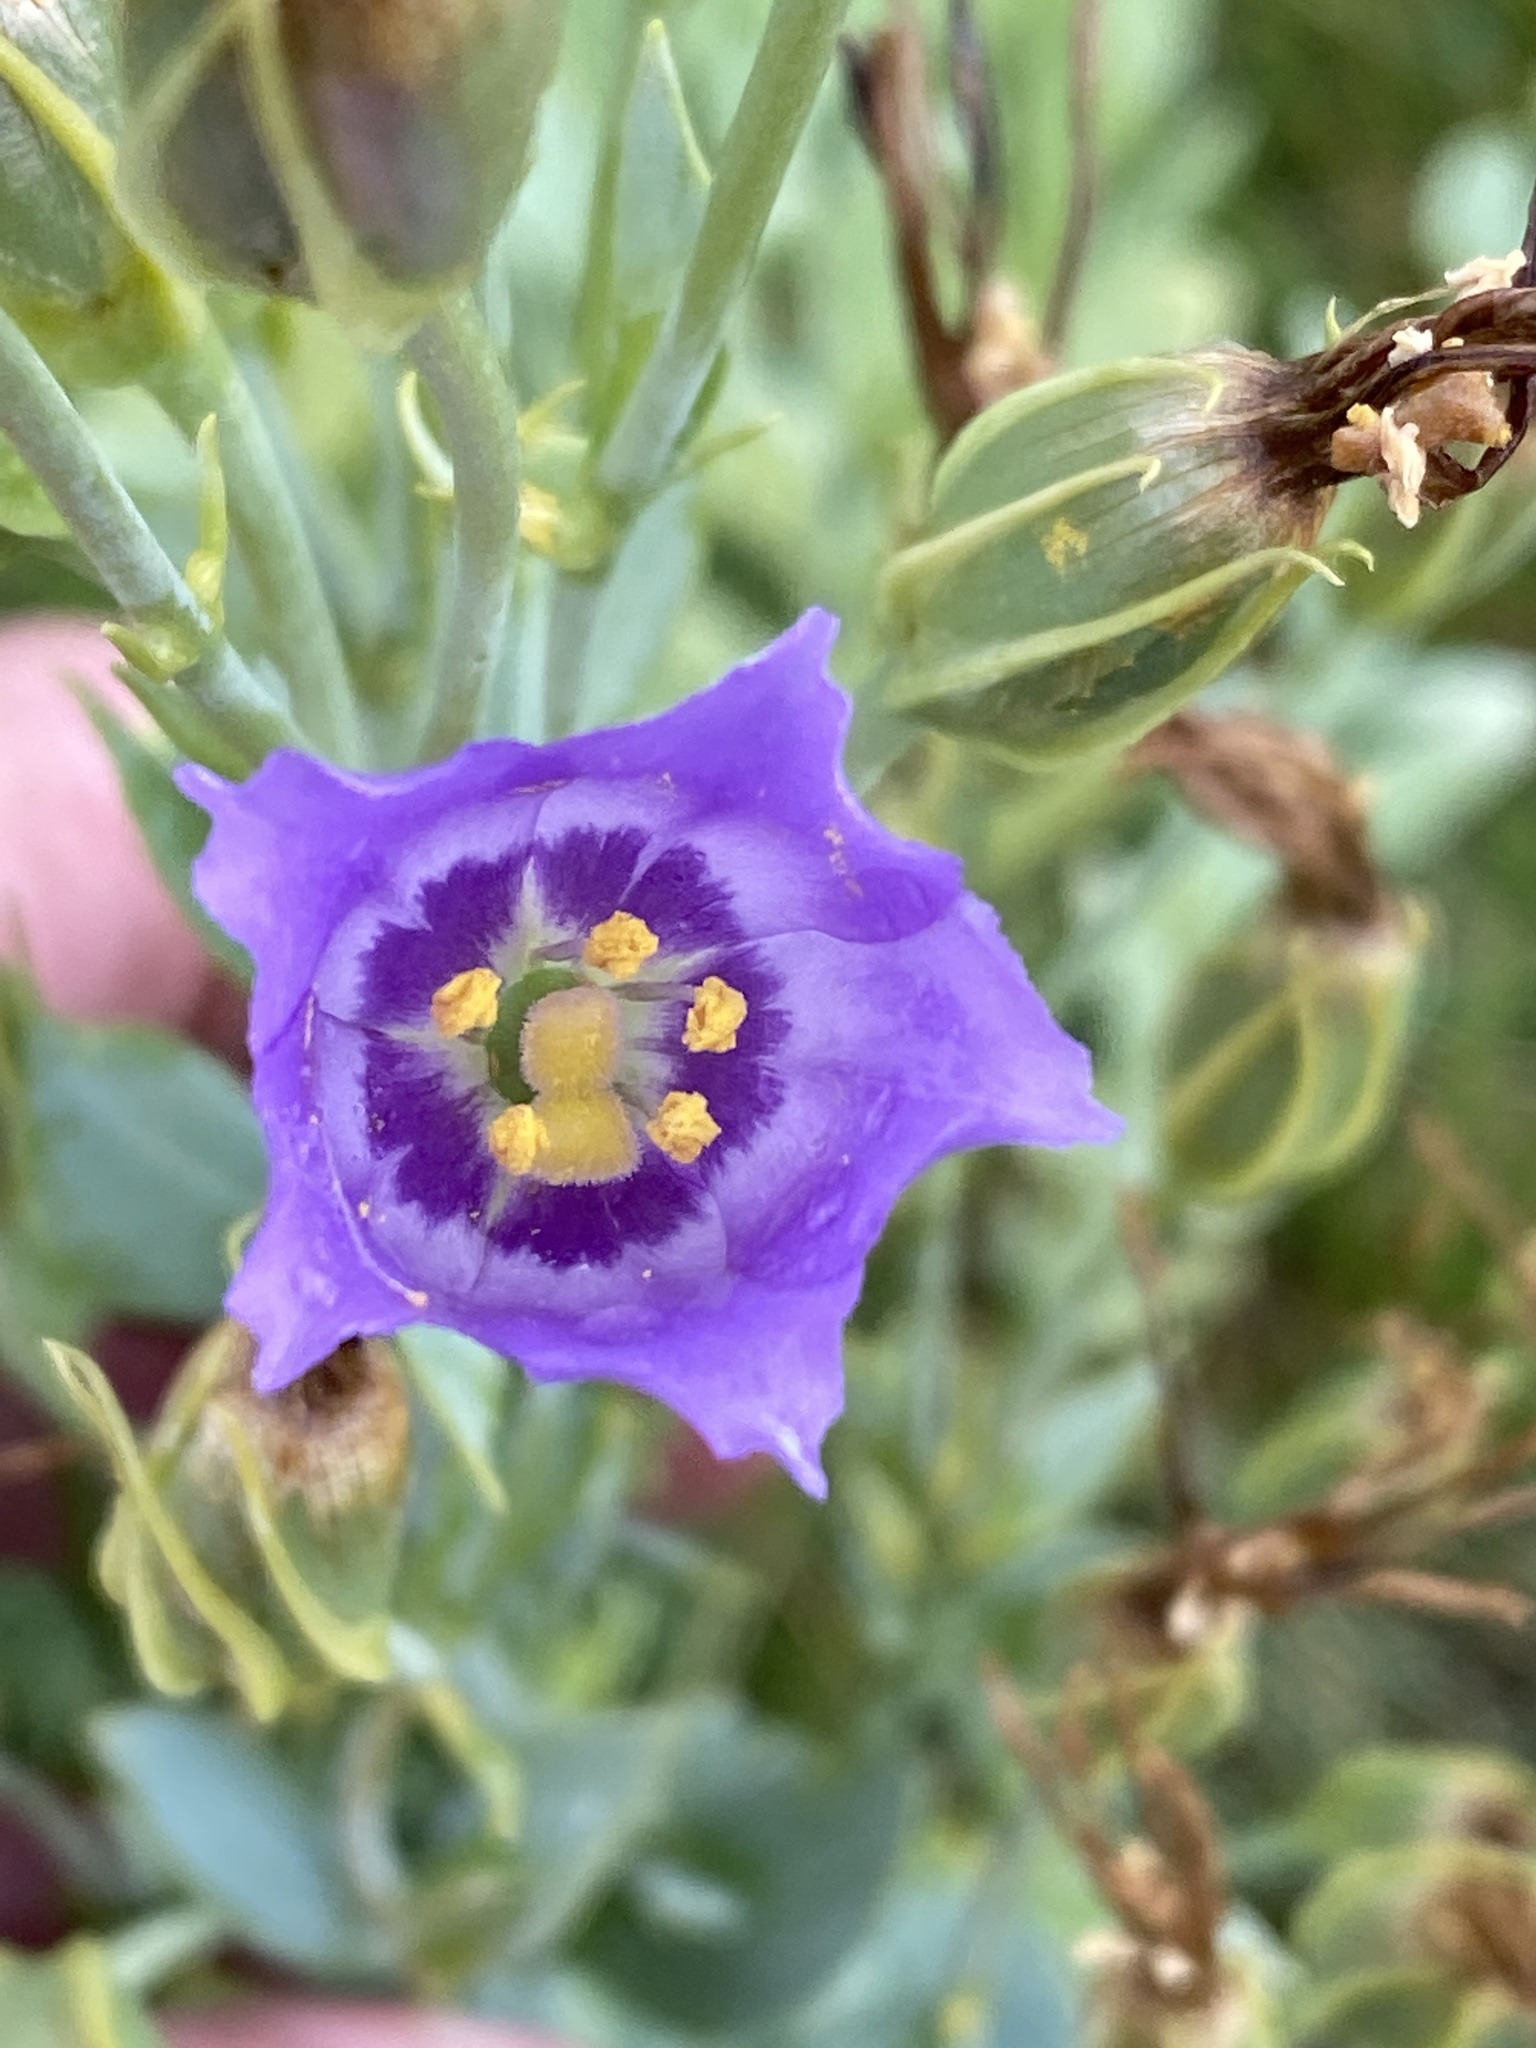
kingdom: Plantae
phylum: Tracheophyta
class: Magnoliopsida
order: Gentianales
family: Gentianaceae
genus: Eustoma
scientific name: Eustoma exaltatum
